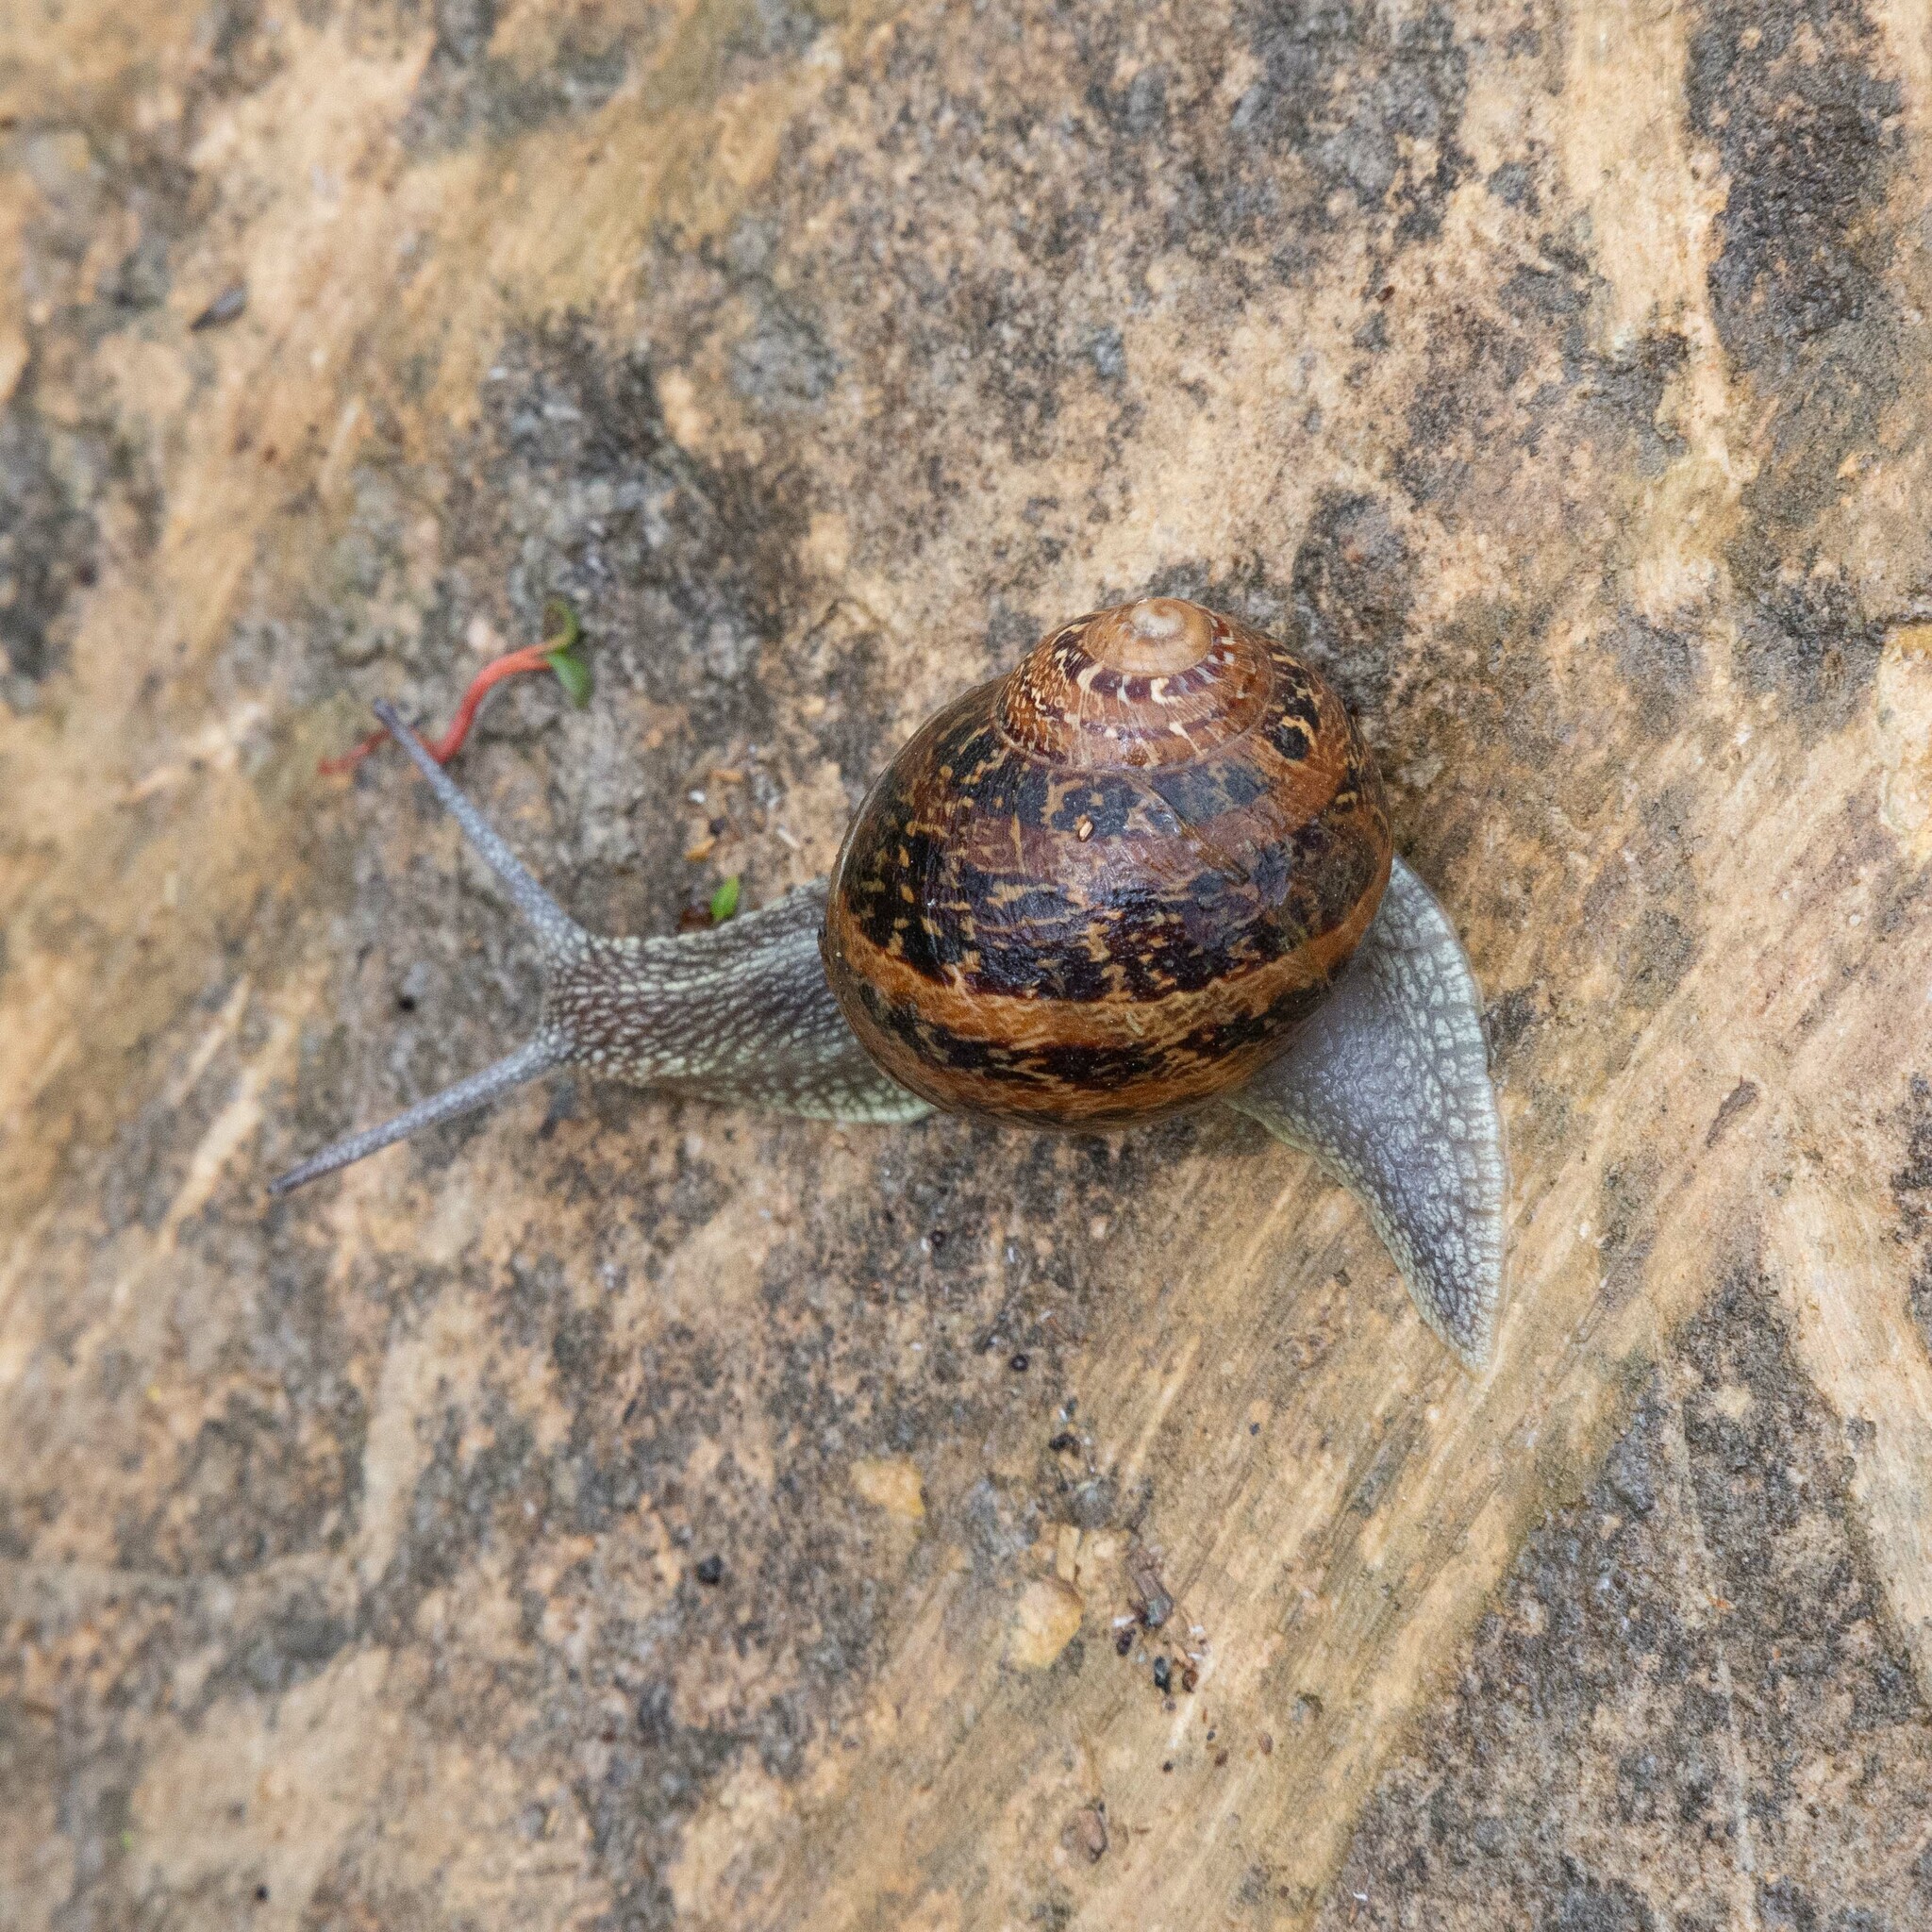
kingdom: Animalia
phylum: Mollusca
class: Gastropoda
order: Stylommatophora
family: Helicidae
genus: Cornu
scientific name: Cornu aspersum
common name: Brown garden snail
